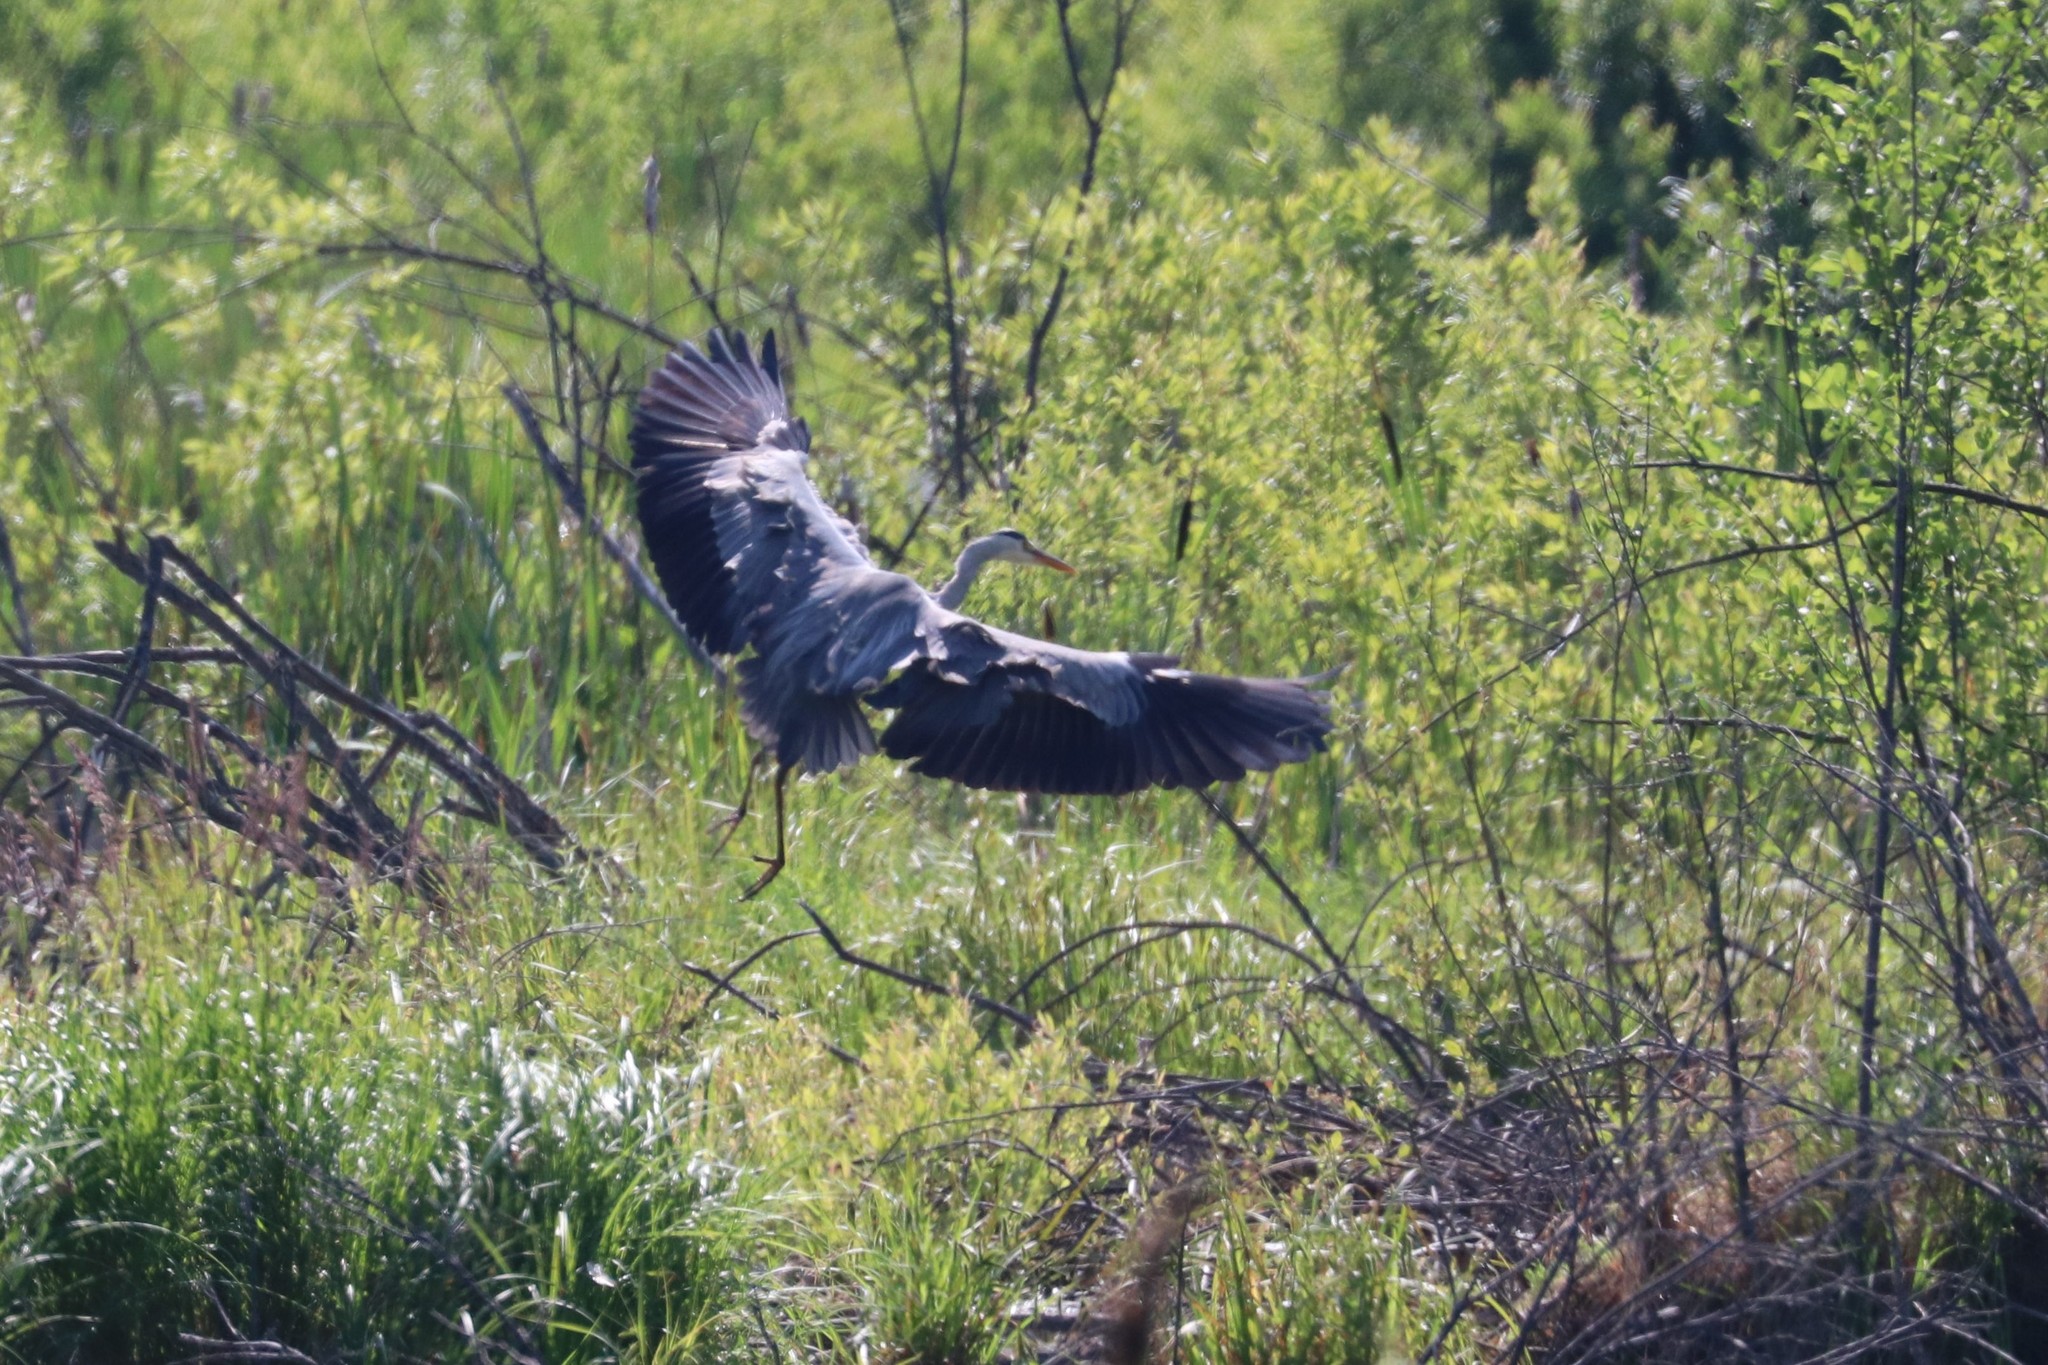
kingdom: Animalia
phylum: Chordata
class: Aves
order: Pelecaniformes
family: Ardeidae
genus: Ardea
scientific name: Ardea cinerea
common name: Grey heron
